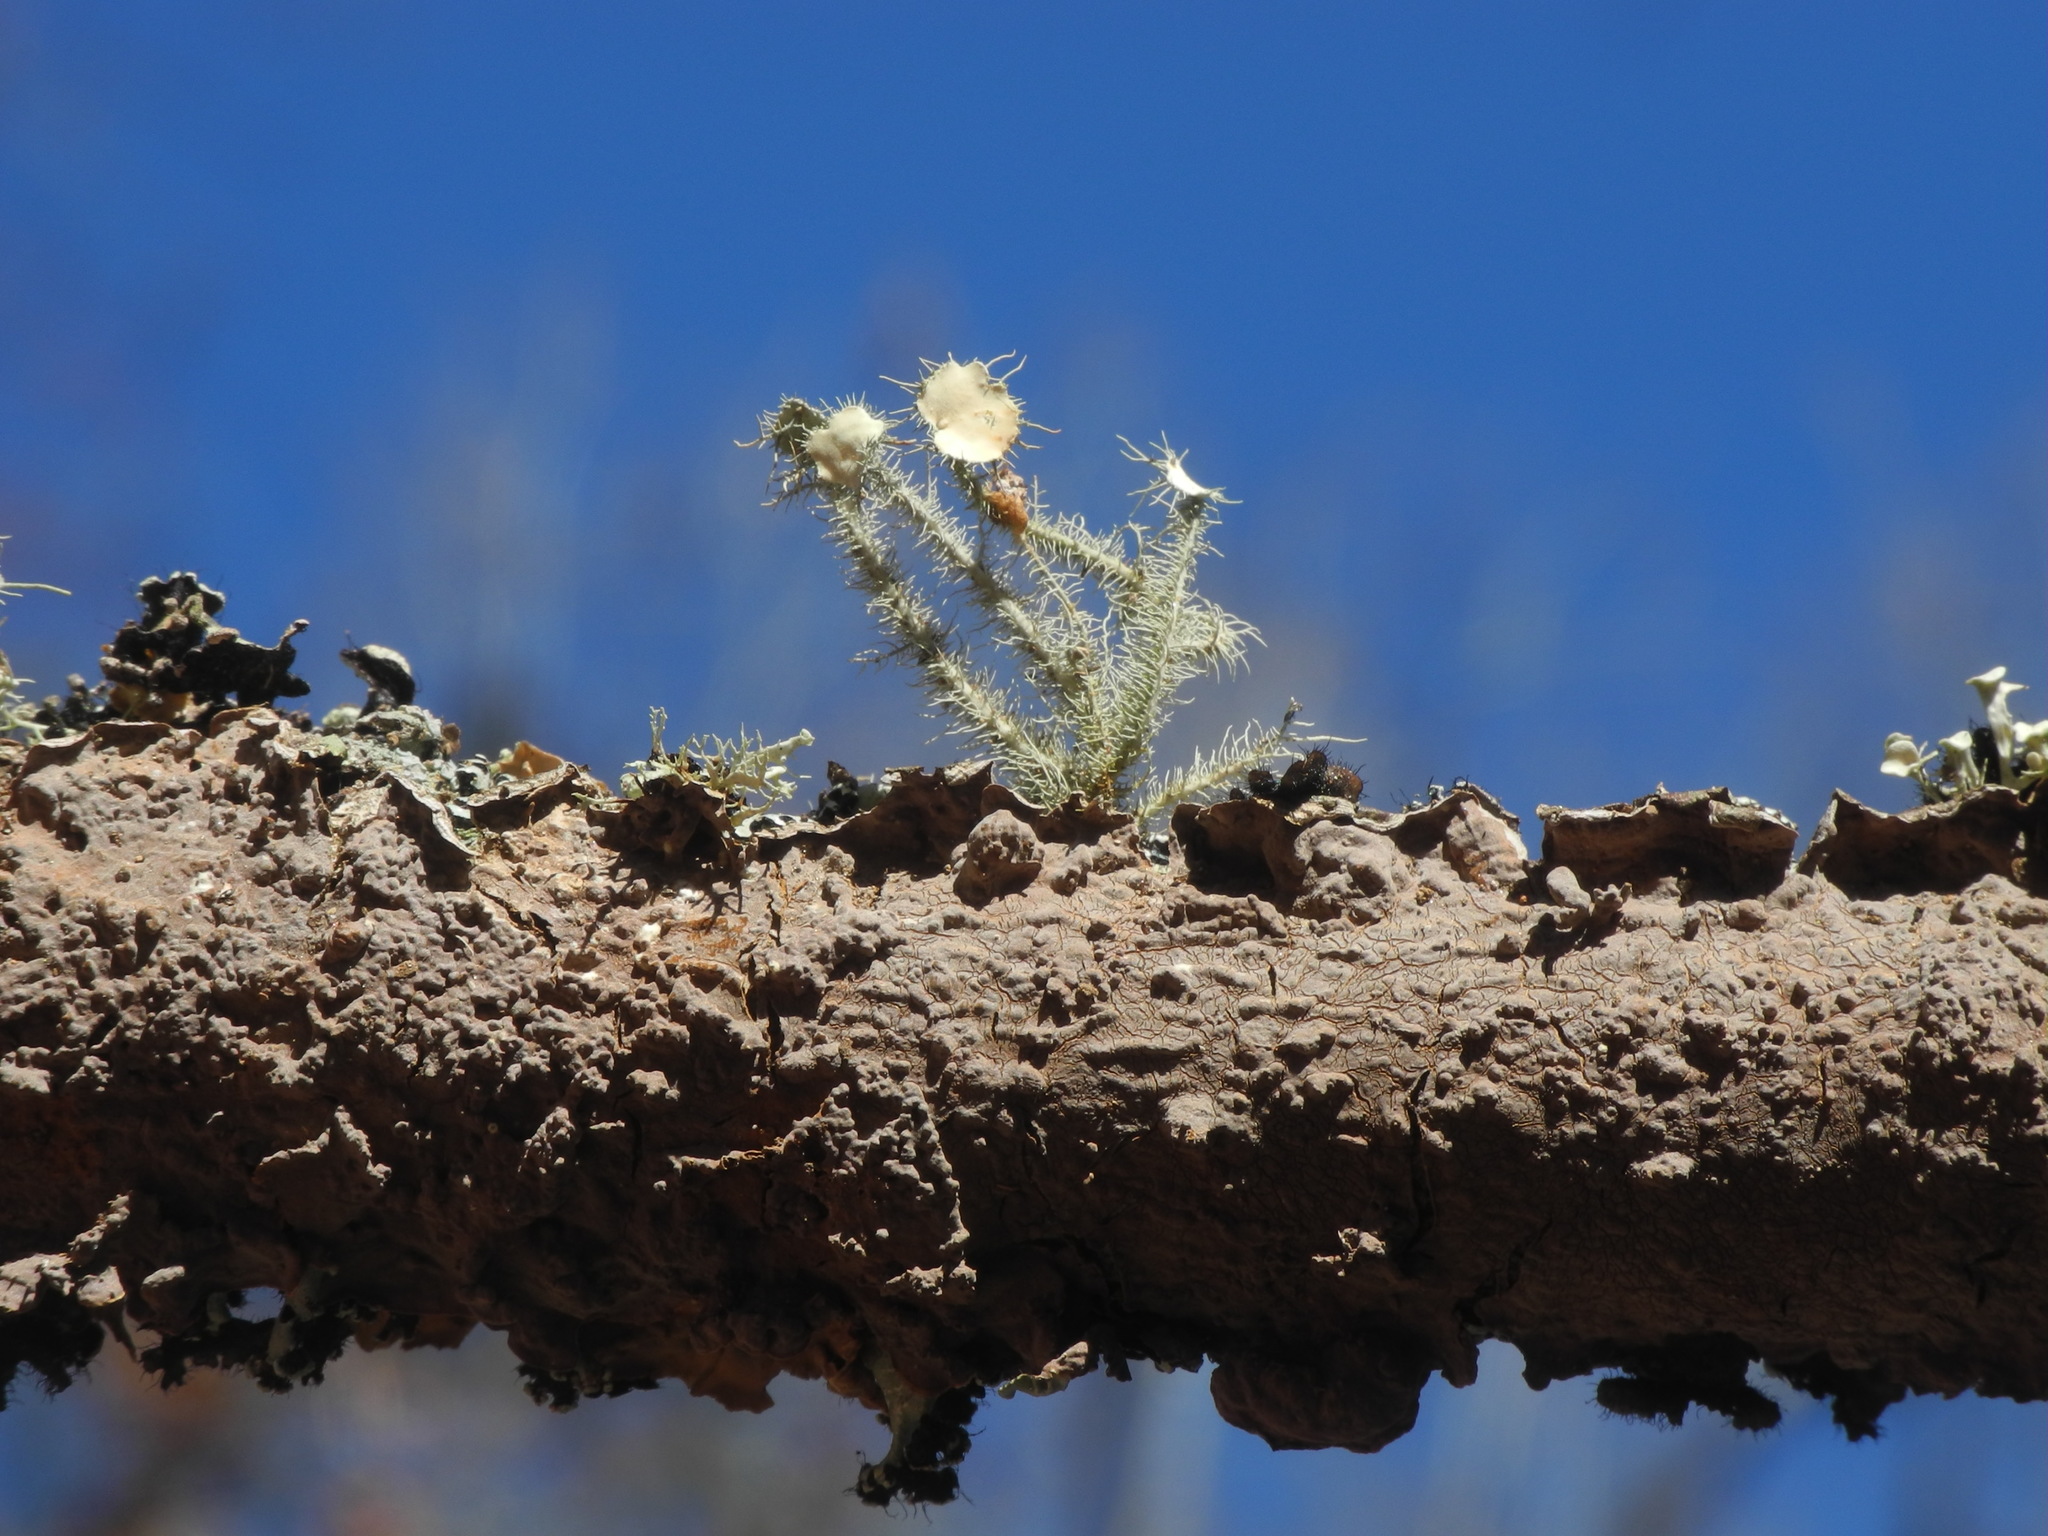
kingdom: Fungi
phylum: Ascomycota
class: Lecanoromycetes
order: Lecanorales
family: Parmeliaceae
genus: Usnea
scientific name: Usnea strigosa
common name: Bushy beard lichen
